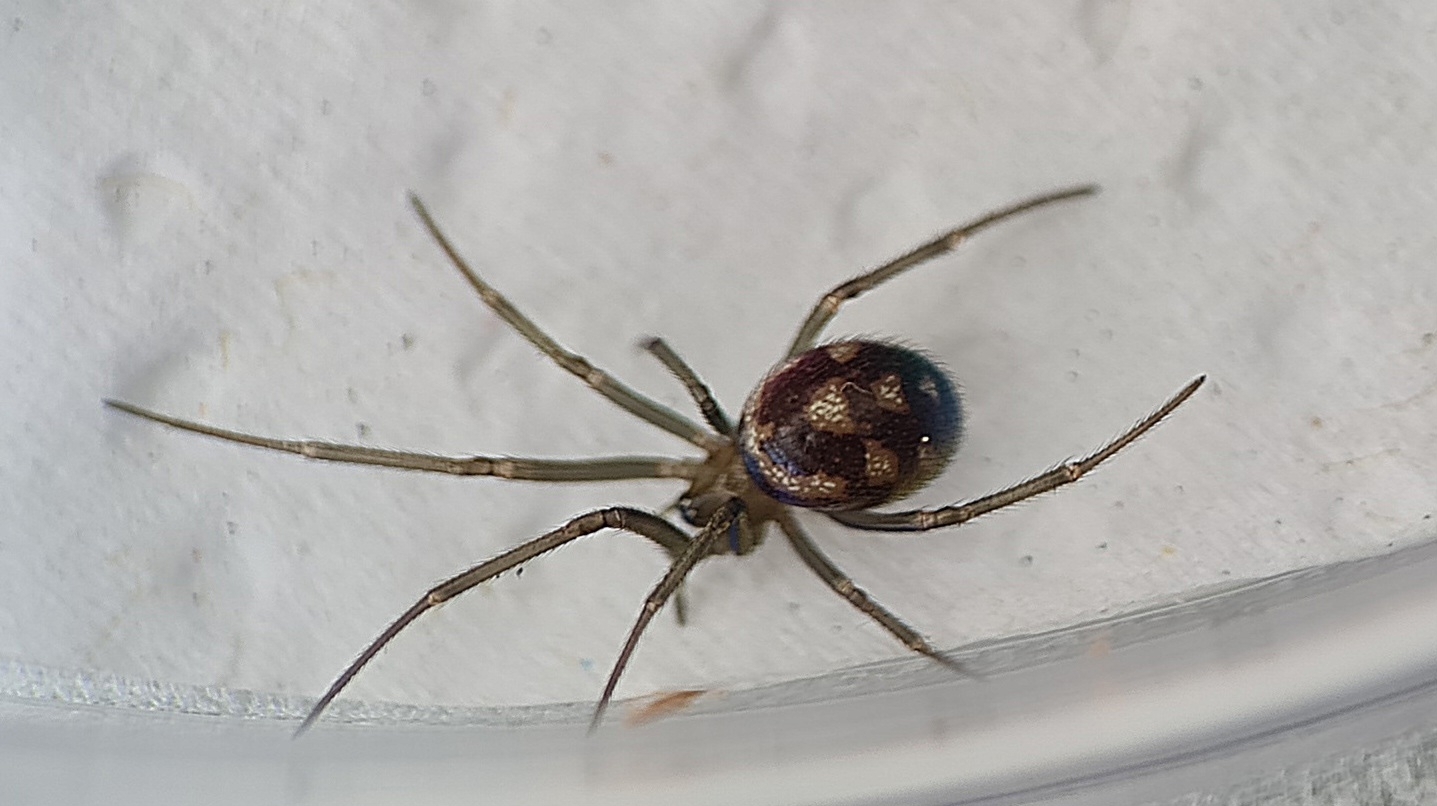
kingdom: Animalia
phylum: Arthropoda
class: Arachnida
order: Araneae
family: Theridiidae
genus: Steatoda
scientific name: Steatoda grossa
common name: False black widow
